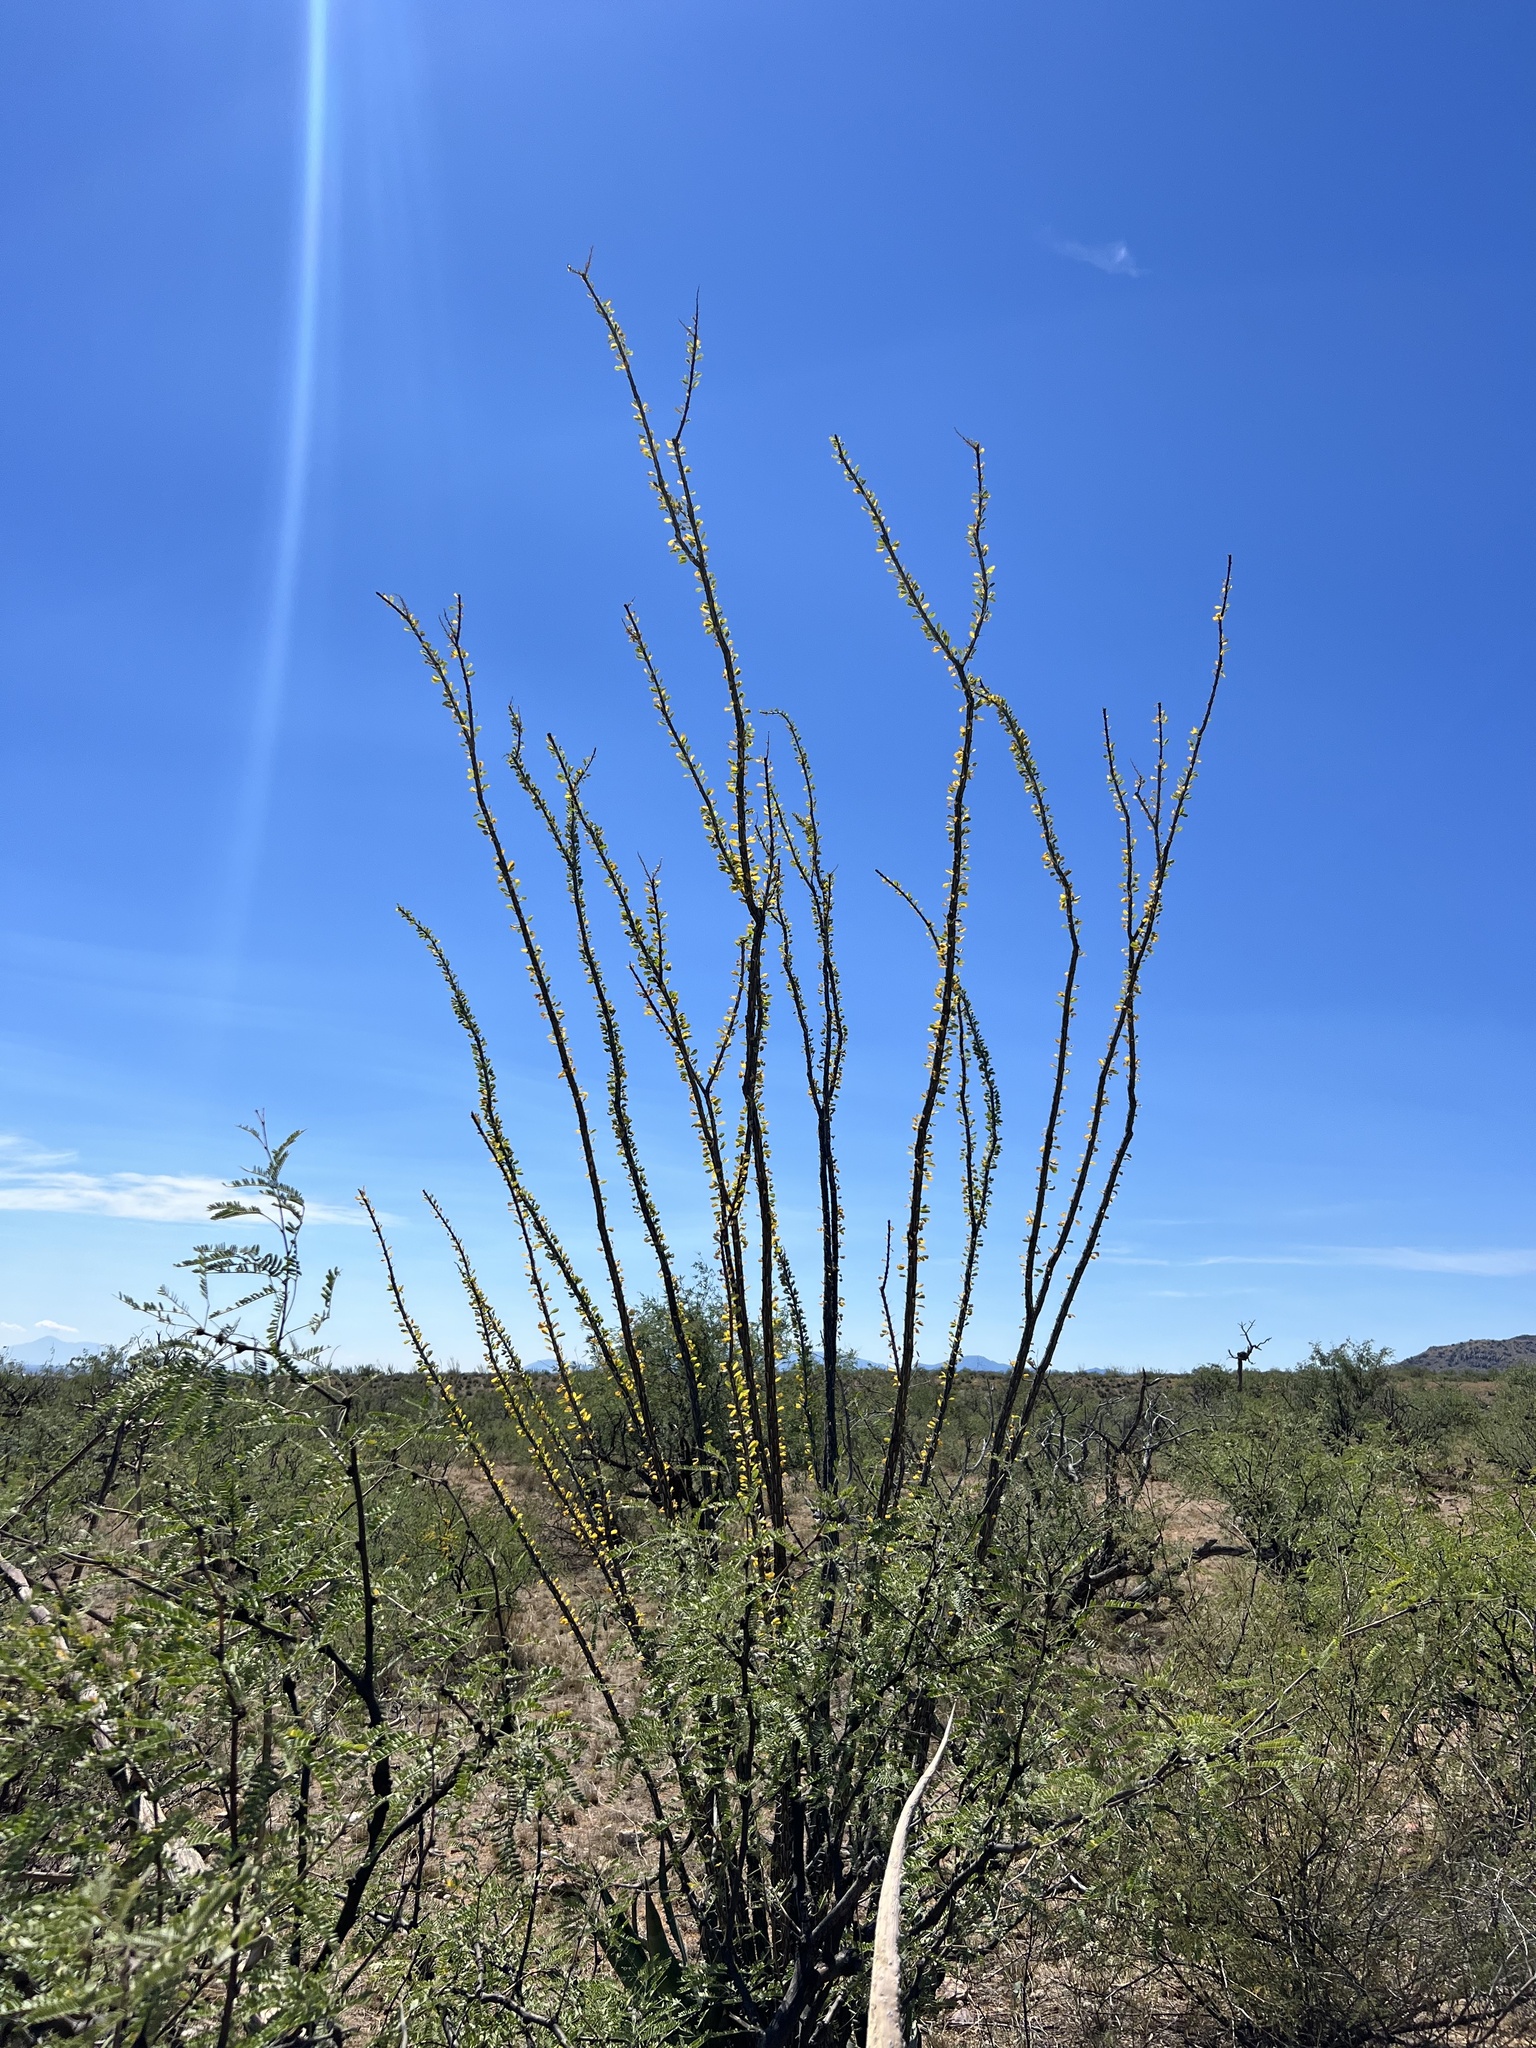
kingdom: Plantae
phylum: Tracheophyta
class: Magnoliopsida
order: Ericales
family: Fouquieriaceae
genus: Fouquieria
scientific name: Fouquieria splendens
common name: Vine-cactus
